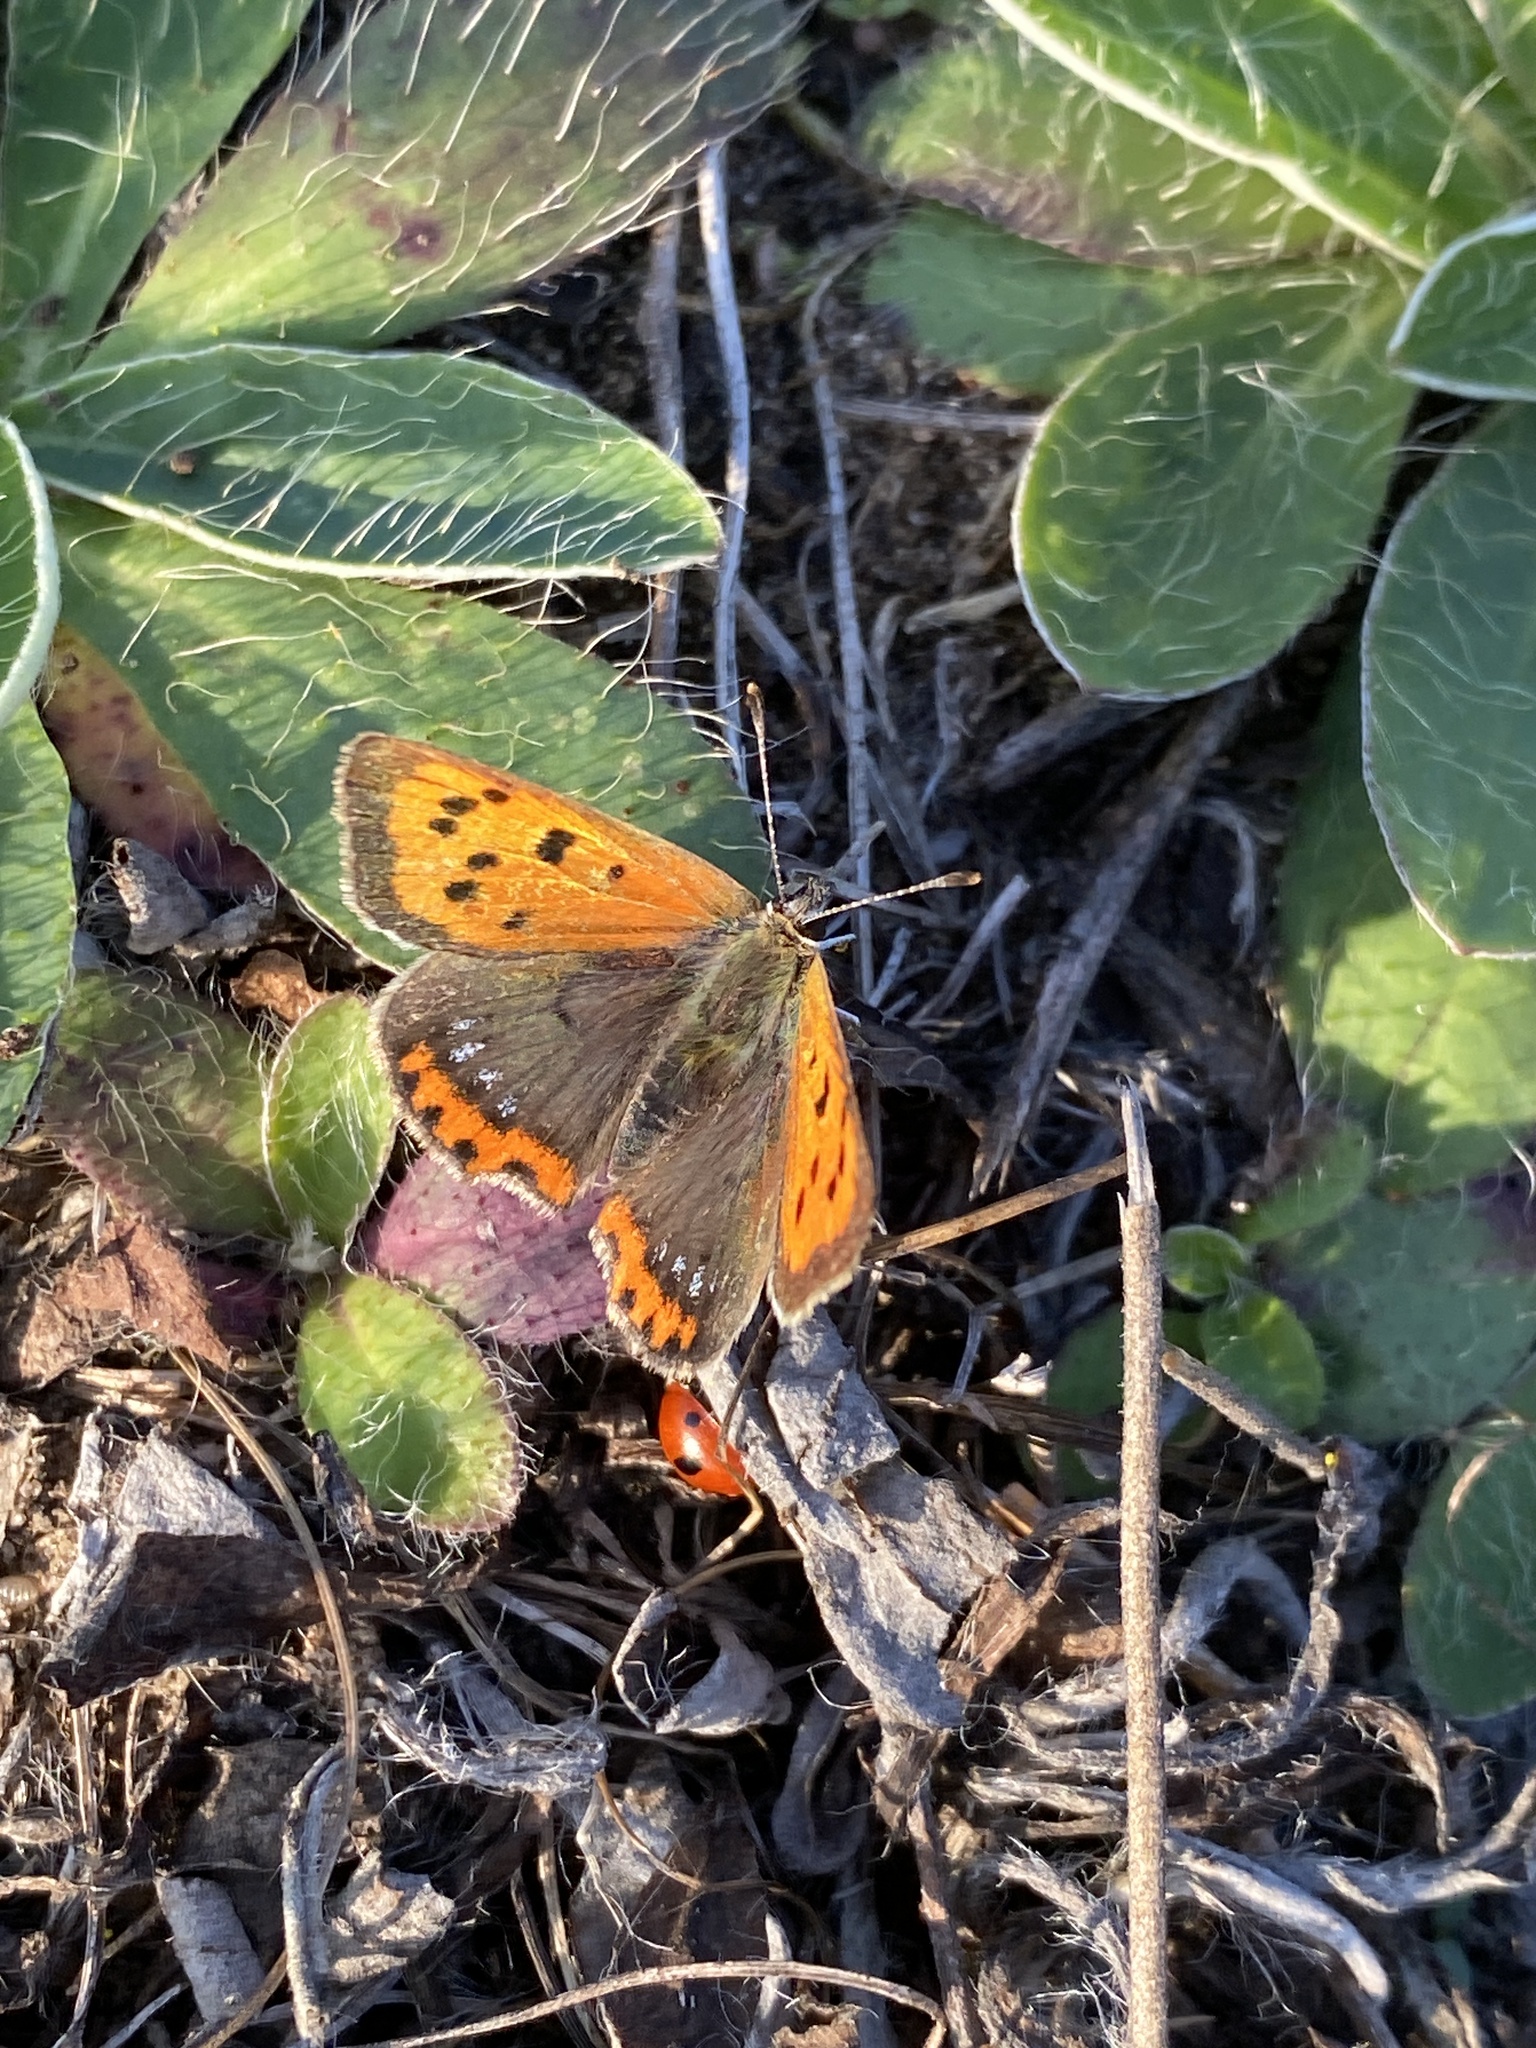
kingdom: Animalia
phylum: Arthropoda
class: Insecta
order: Lepidoptera
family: Lycaenidae
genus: Lycaena
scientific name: Lycaena phlaeas
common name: Small copper
